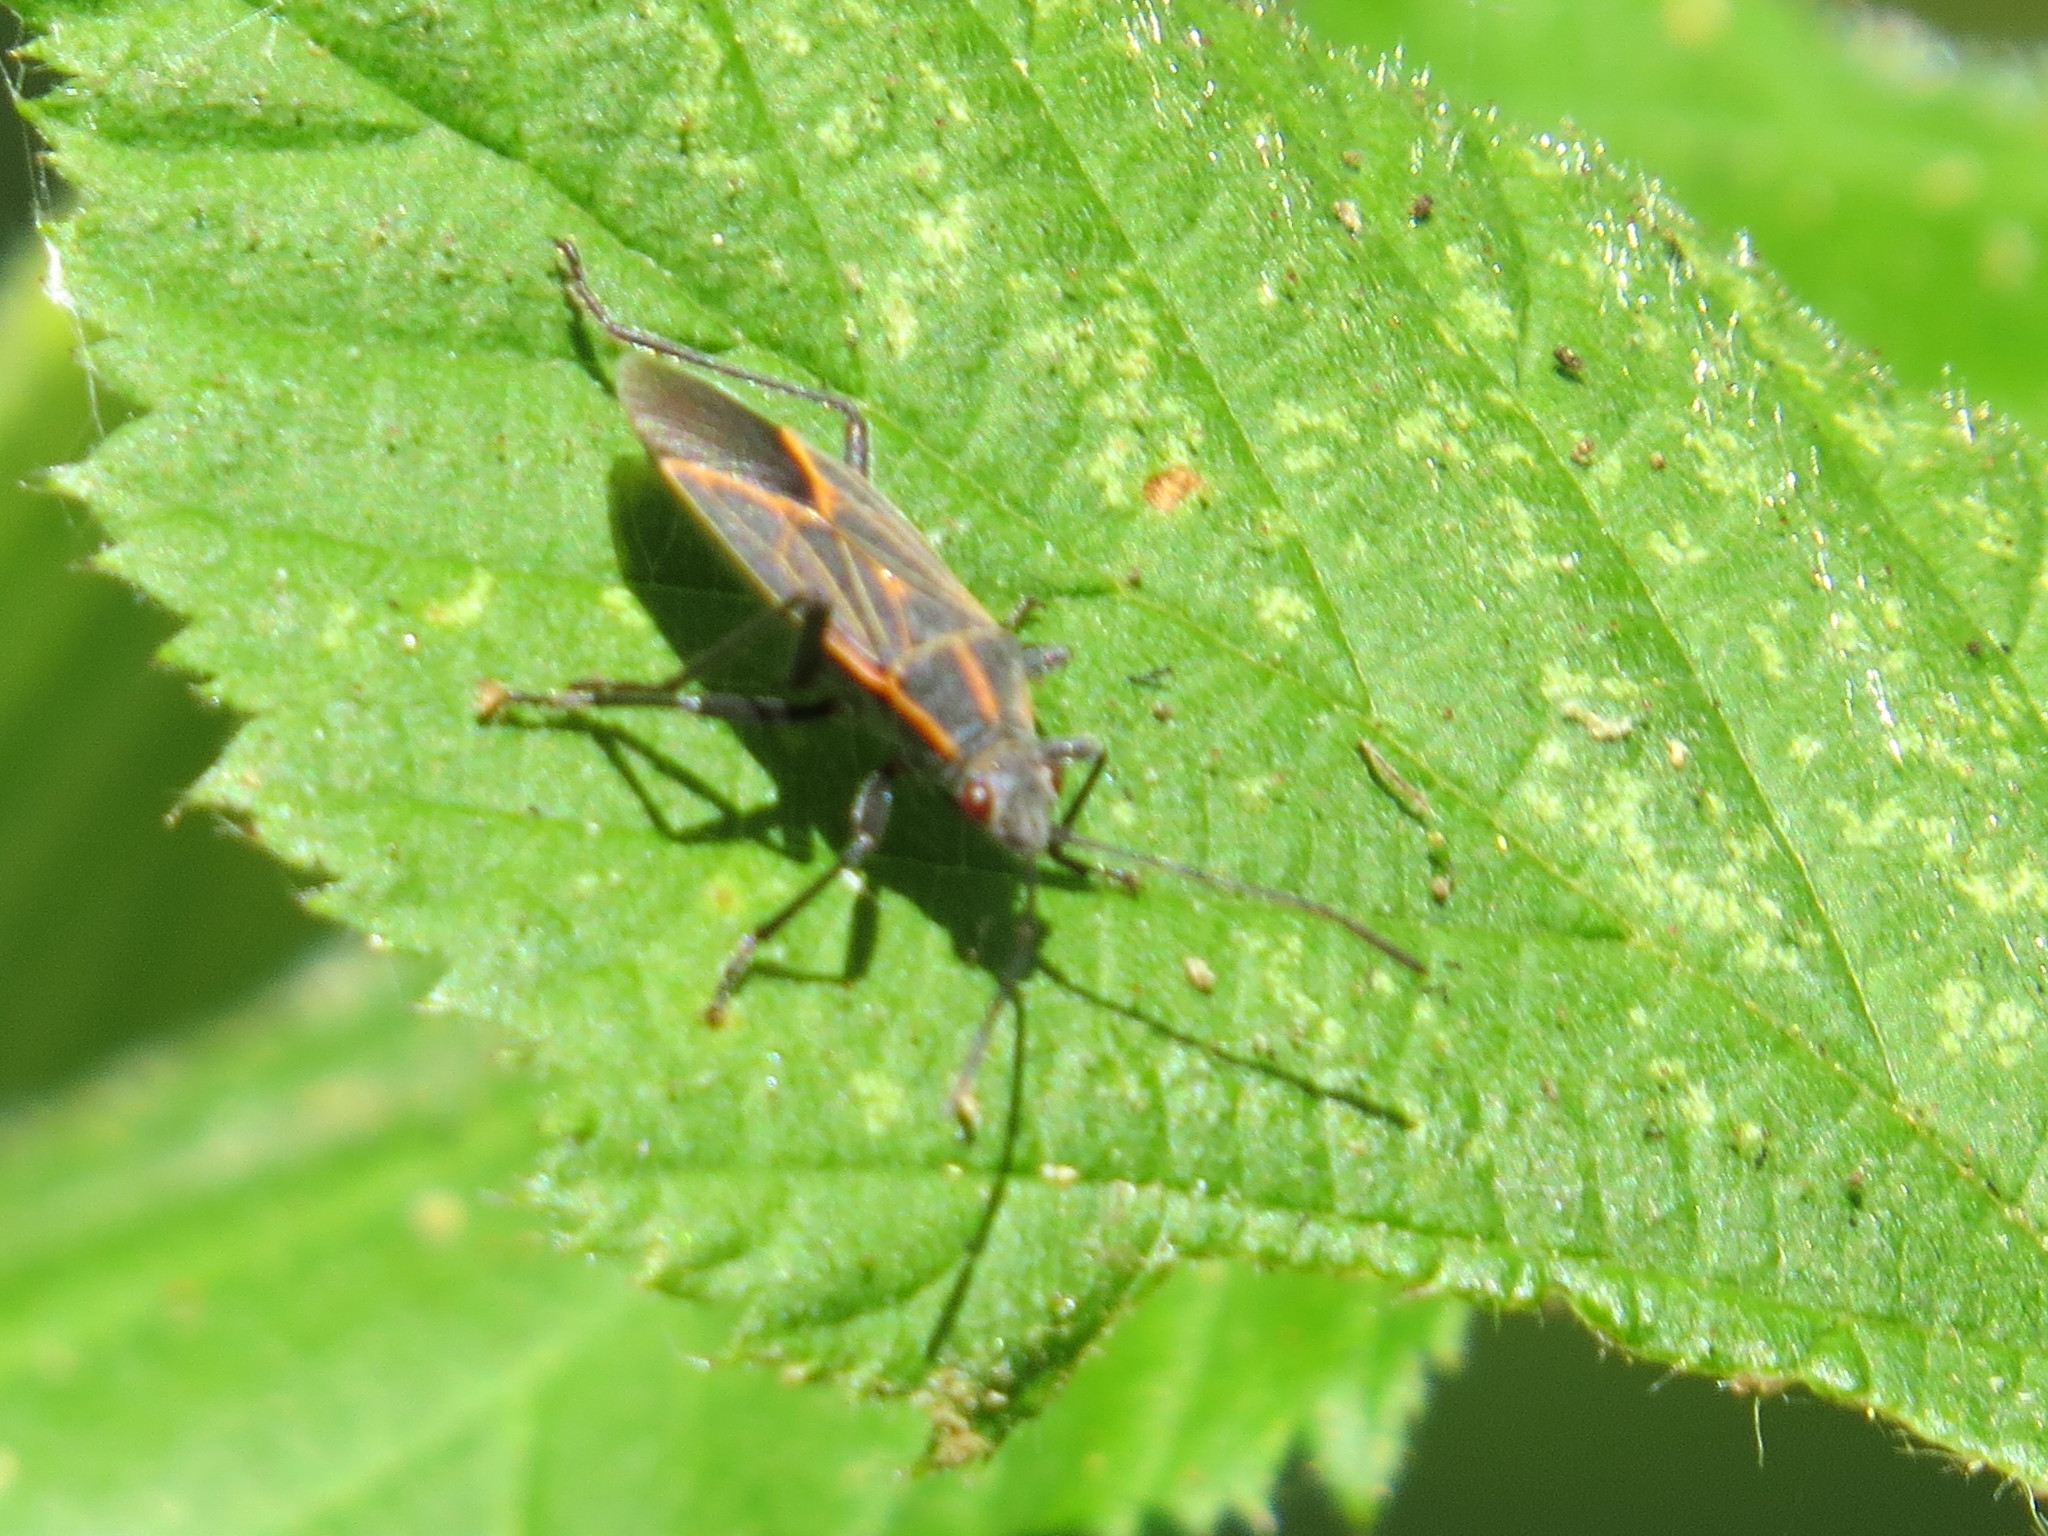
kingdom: Animalia
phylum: Arthropoda
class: Insecta
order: Hemiptera
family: Rhopalidae
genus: Boisea
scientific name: Boisea rubrolineata
